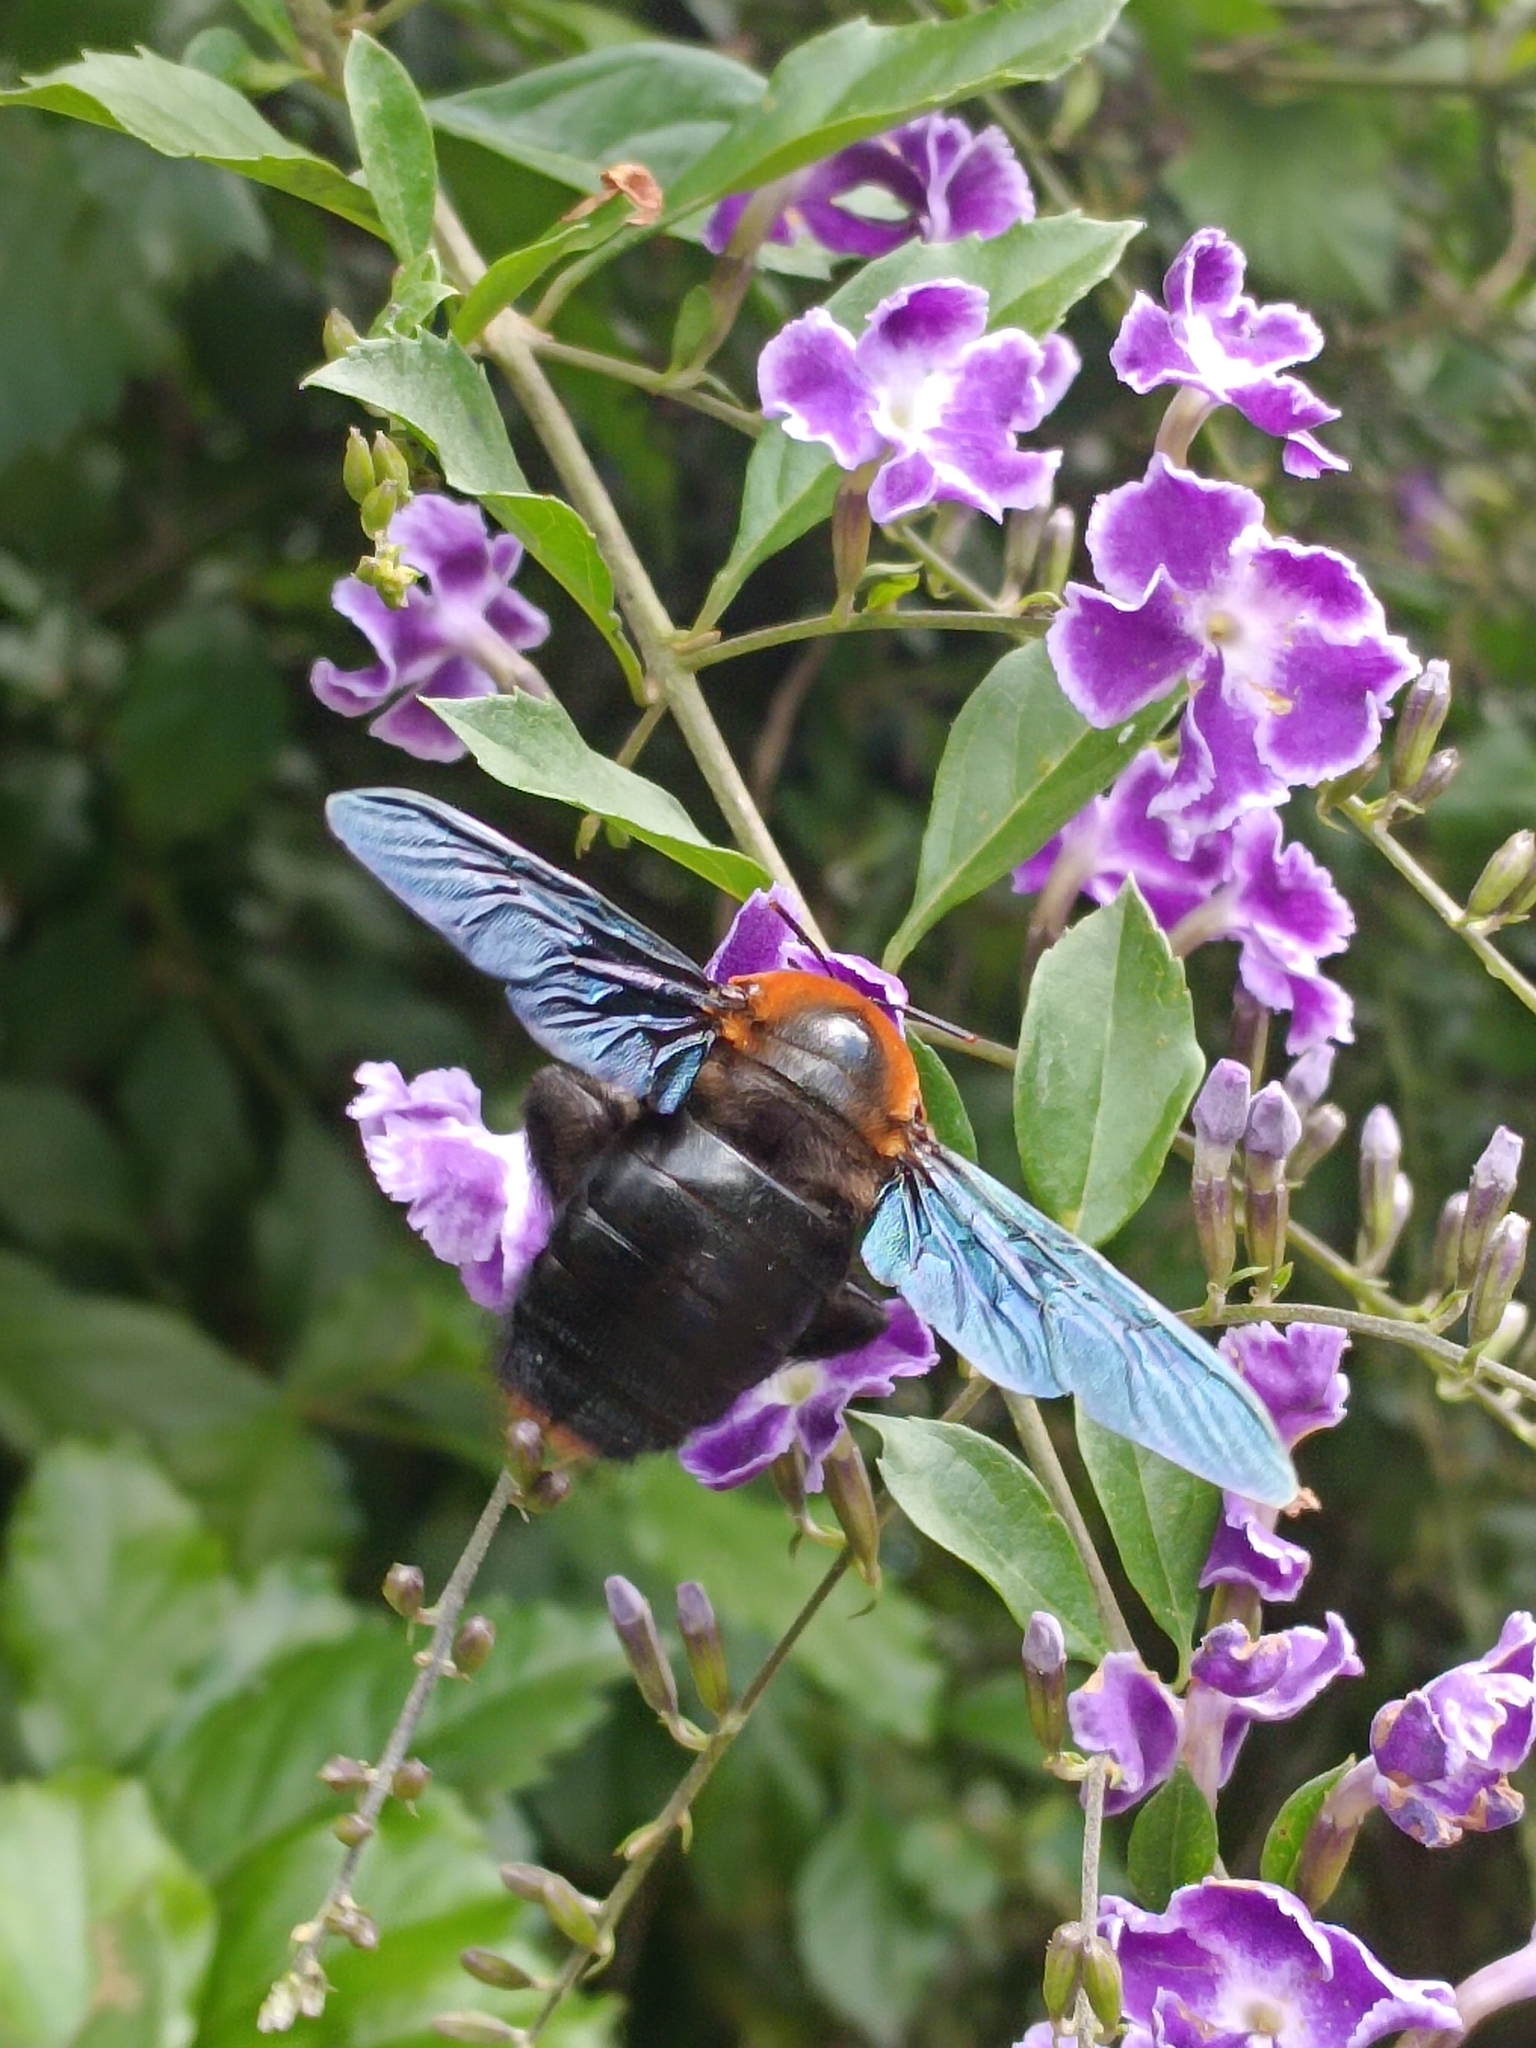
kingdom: Animalia
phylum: Arthropoda
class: Insecta
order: Hymenoptera
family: Apidae
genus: Xylocopa
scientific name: Xylocopa flavorufa
